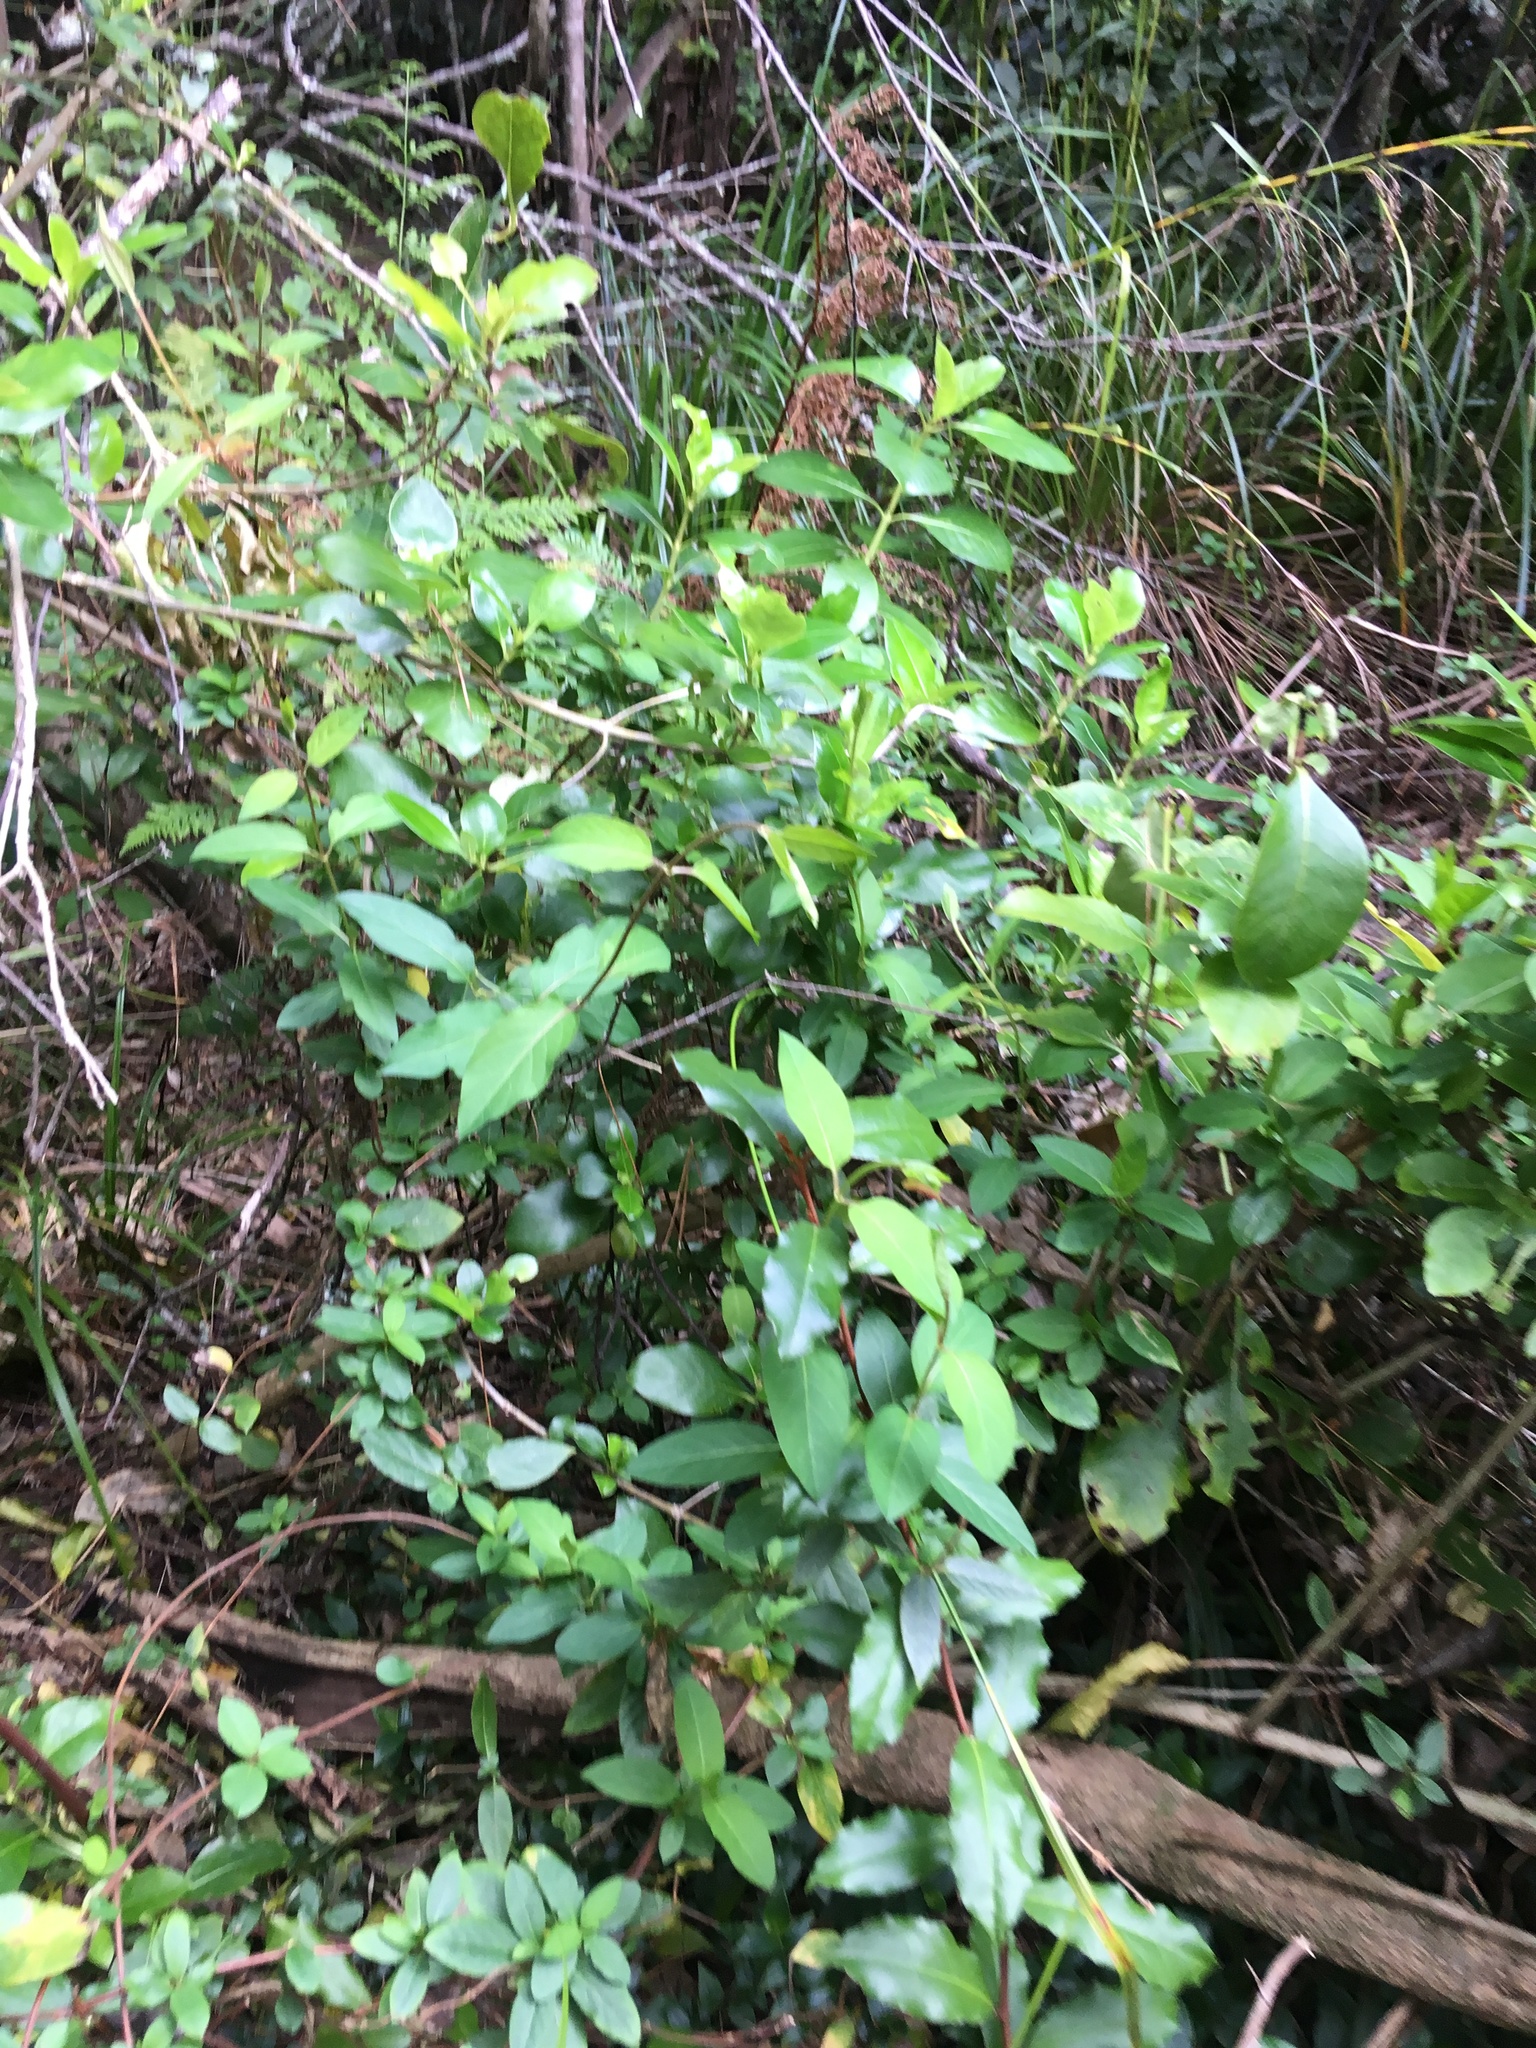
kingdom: Plantae
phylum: Tracheophyta
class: Magnoliopsida
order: Dipsacales
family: Caprifoliaceae
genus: Lonicera
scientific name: Lonicera japonica
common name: Japanese honeysuckle
